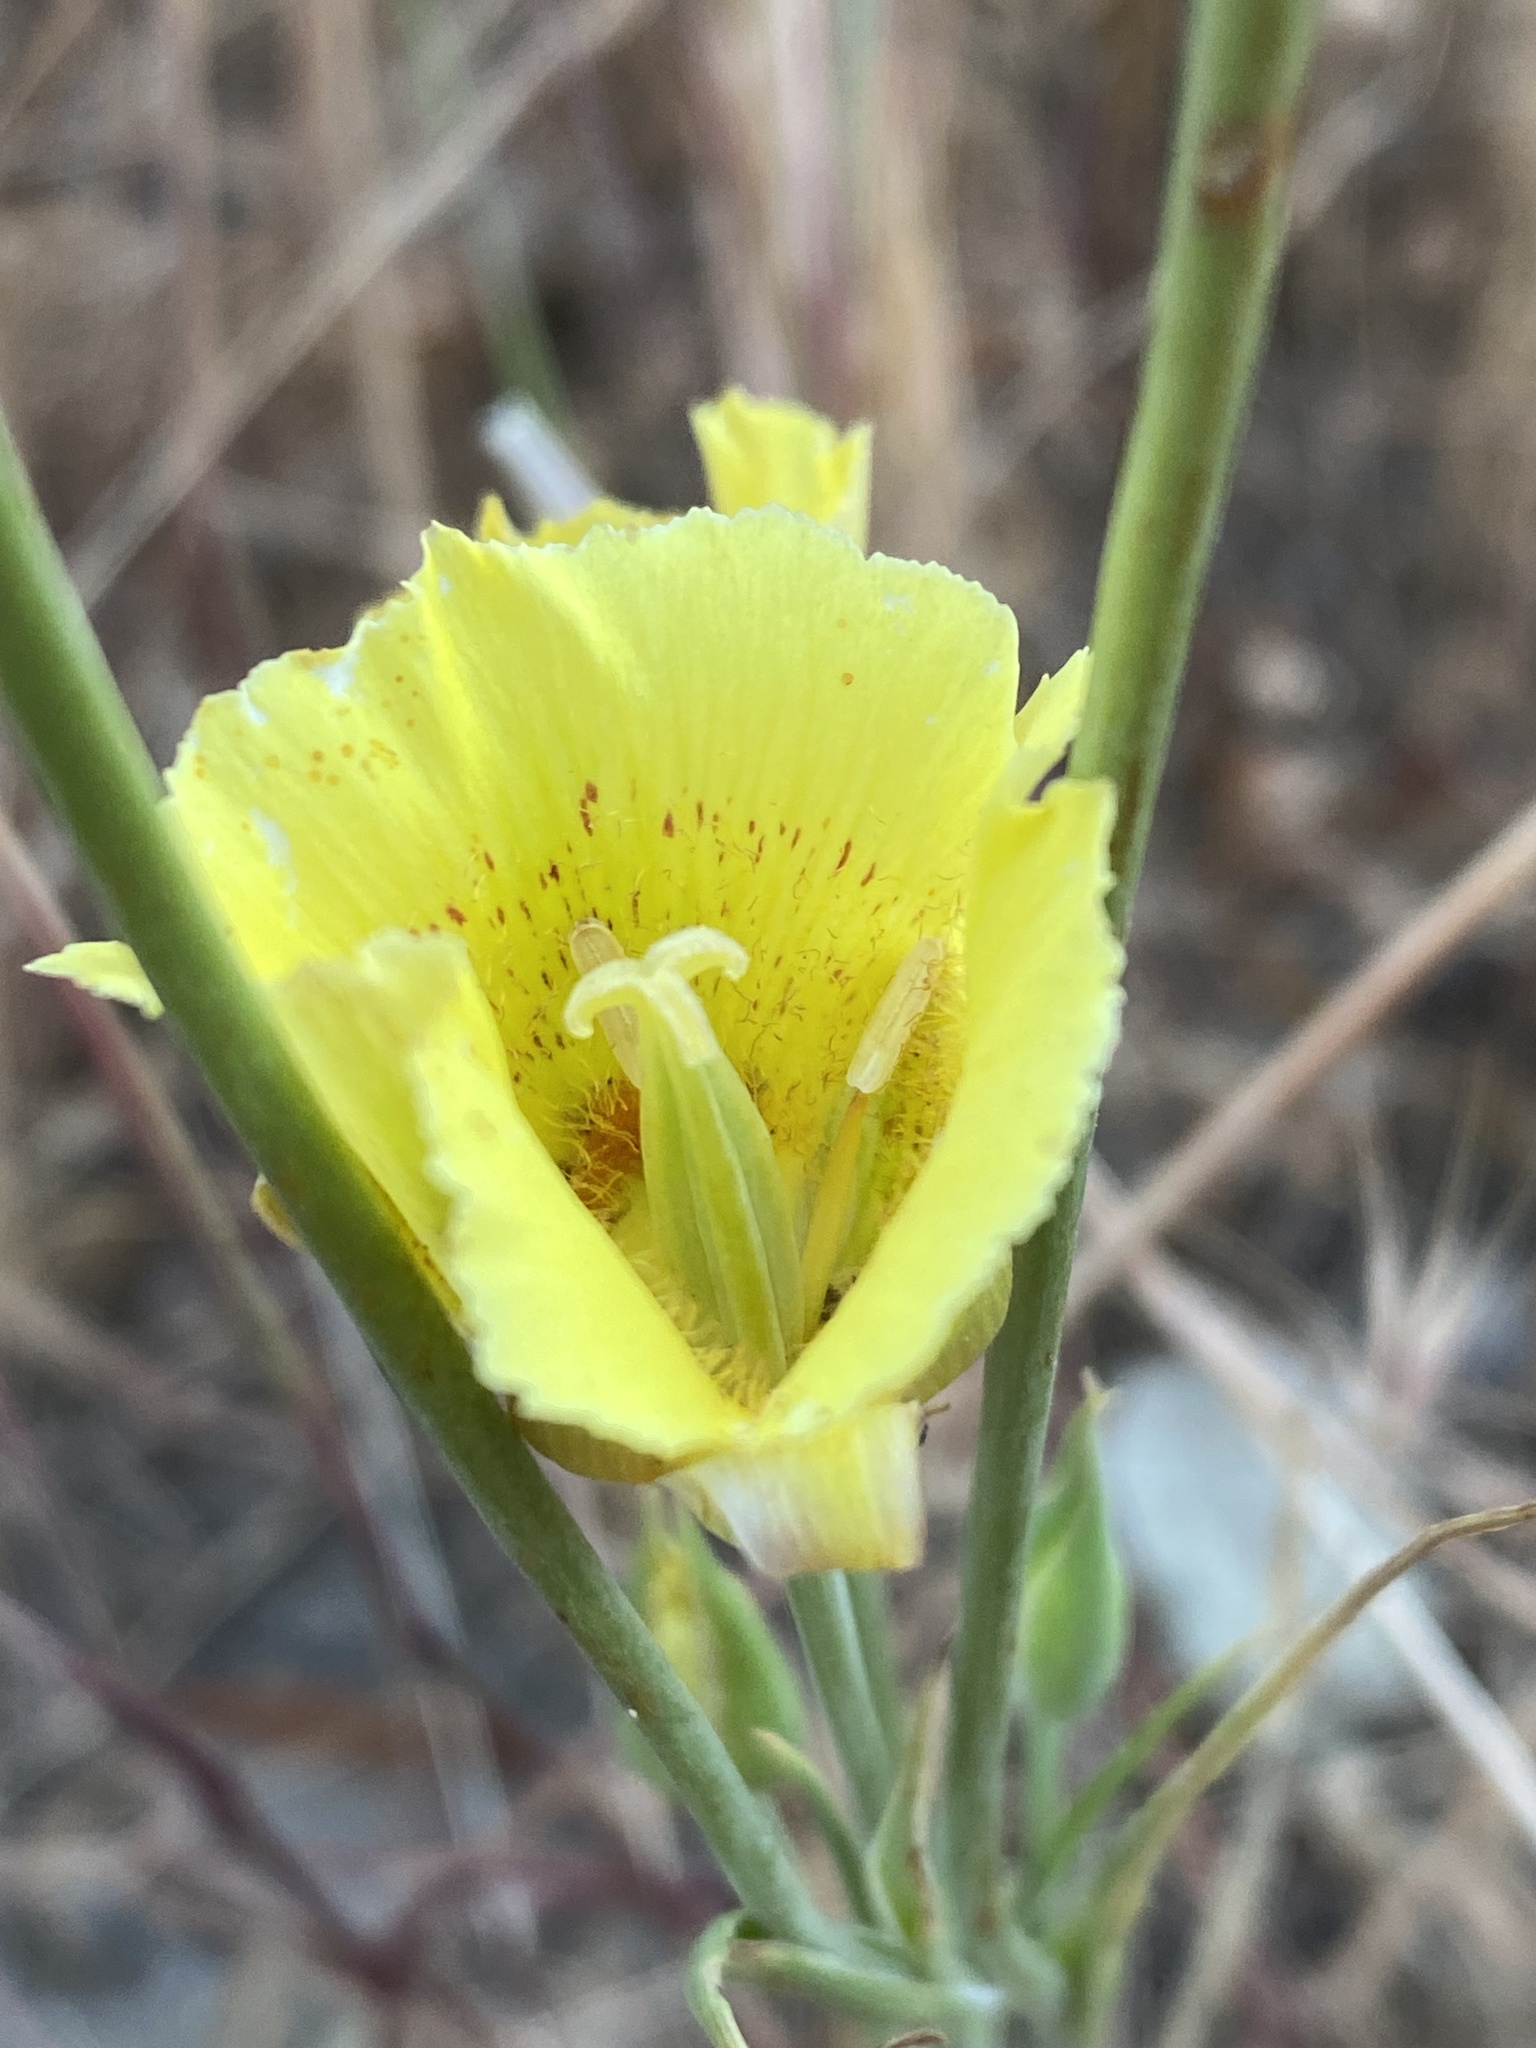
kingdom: Plantae
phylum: Tracheophyta
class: Liliopsida
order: Liliales
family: Liliaceae
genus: Calochortus
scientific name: Calochortus luteus
